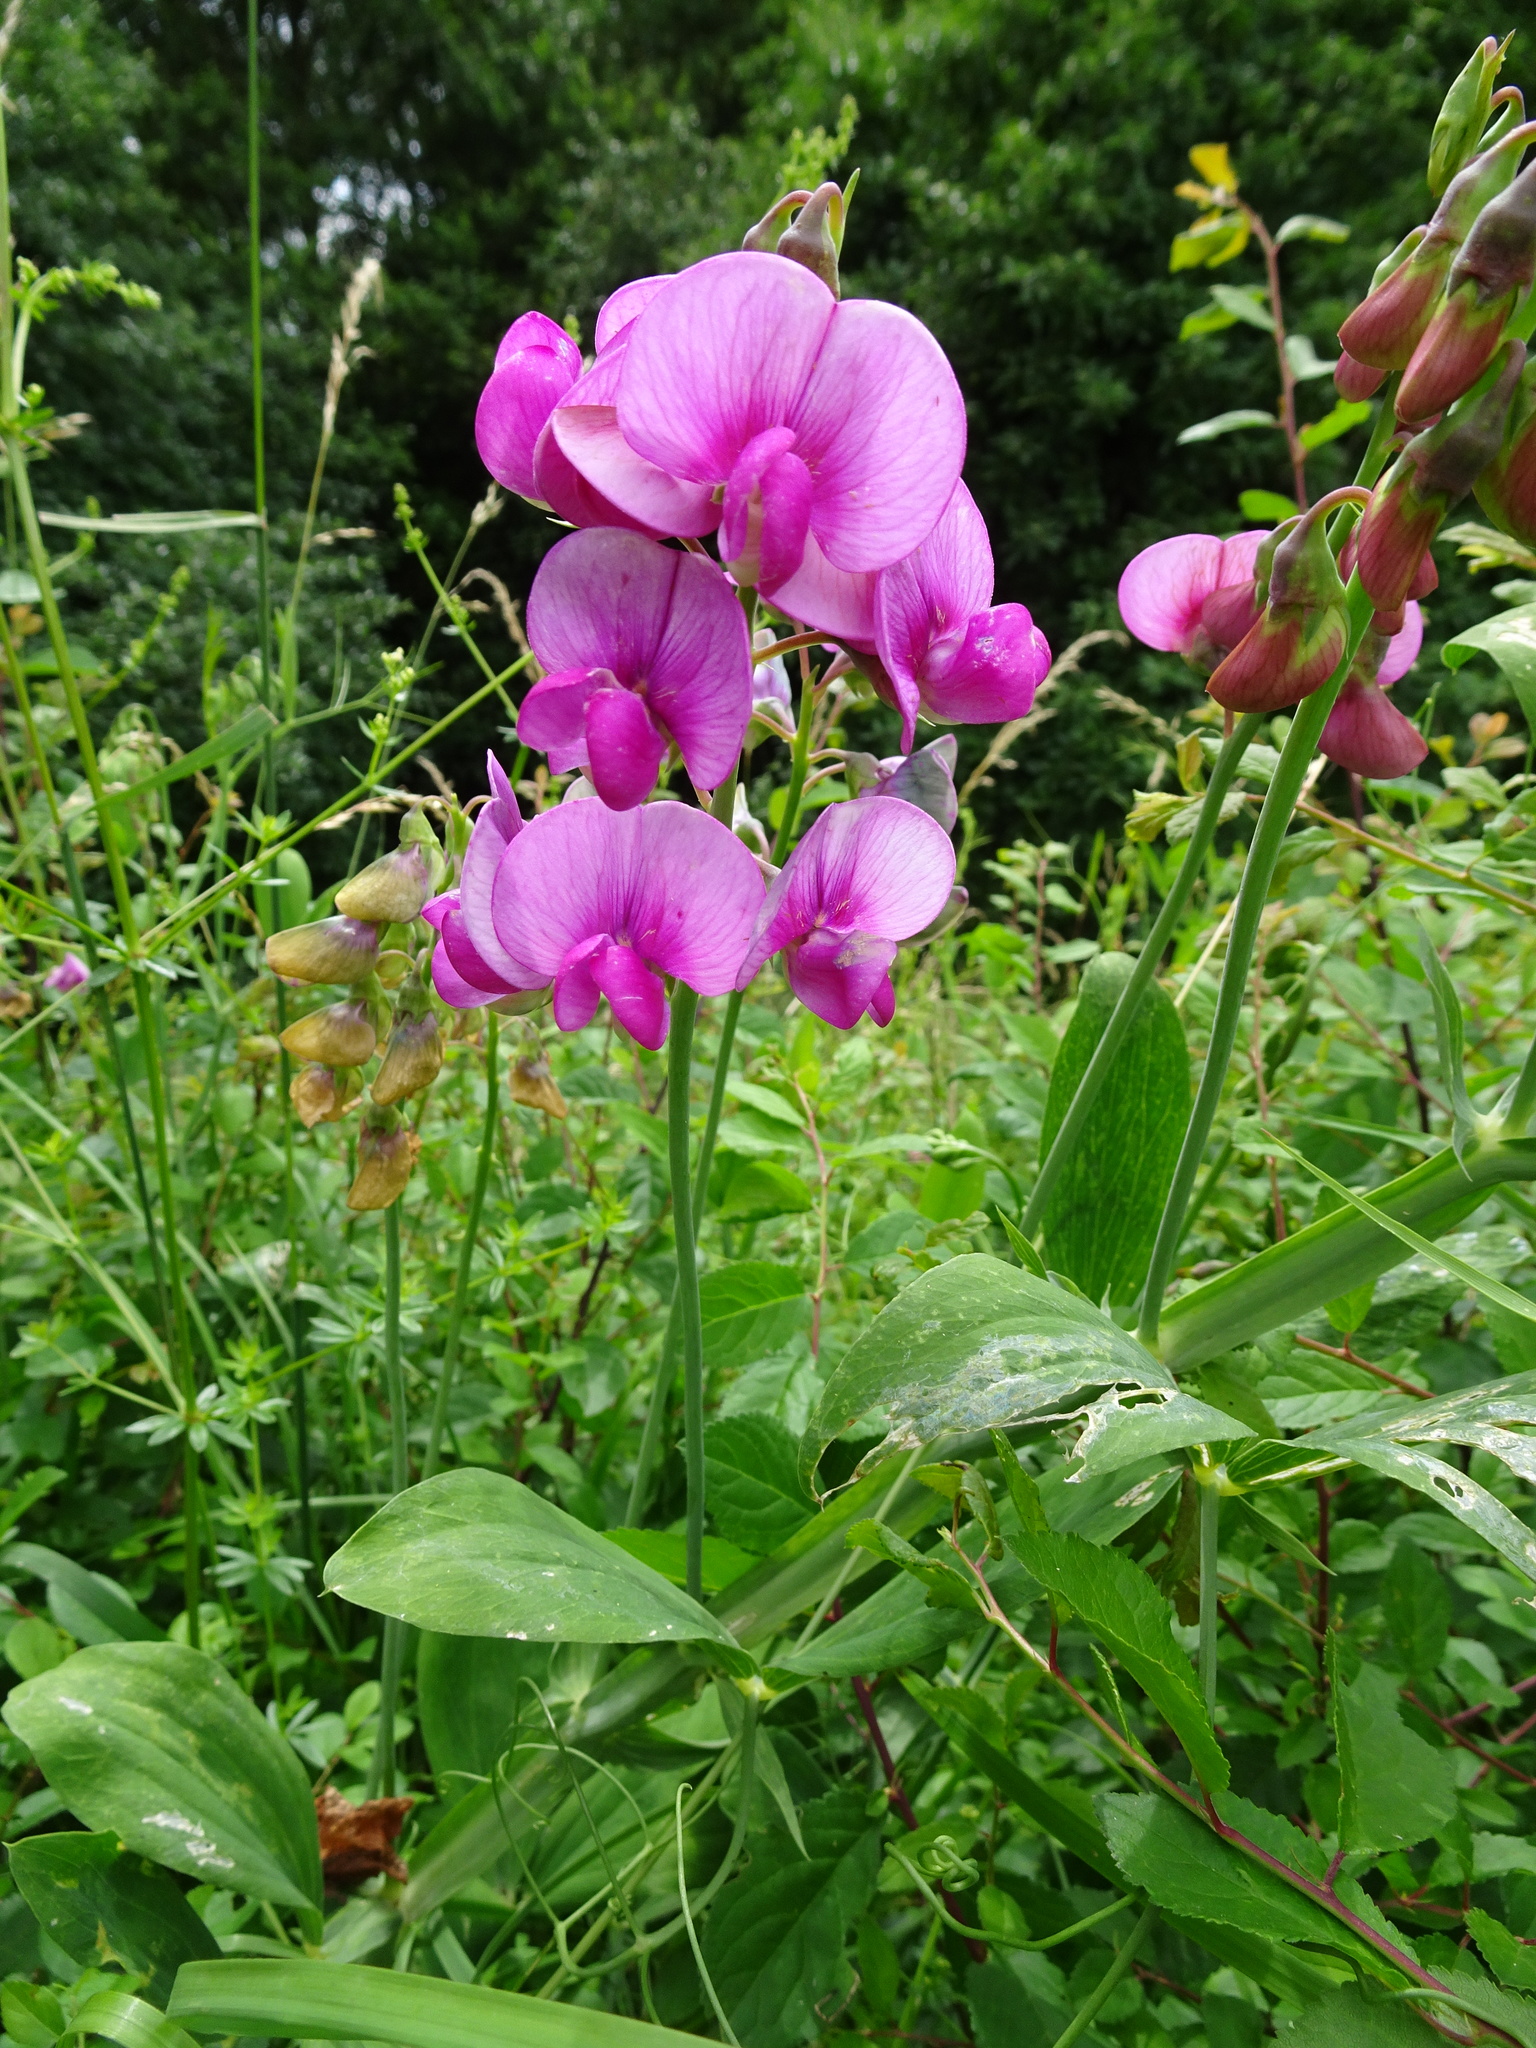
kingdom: Plantae
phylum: Tracheophyta
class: Magnoliopsida
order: Fabales
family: Fabaceae
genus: Lathyrus
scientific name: Lathyrus latifolius
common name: Perennial pea
